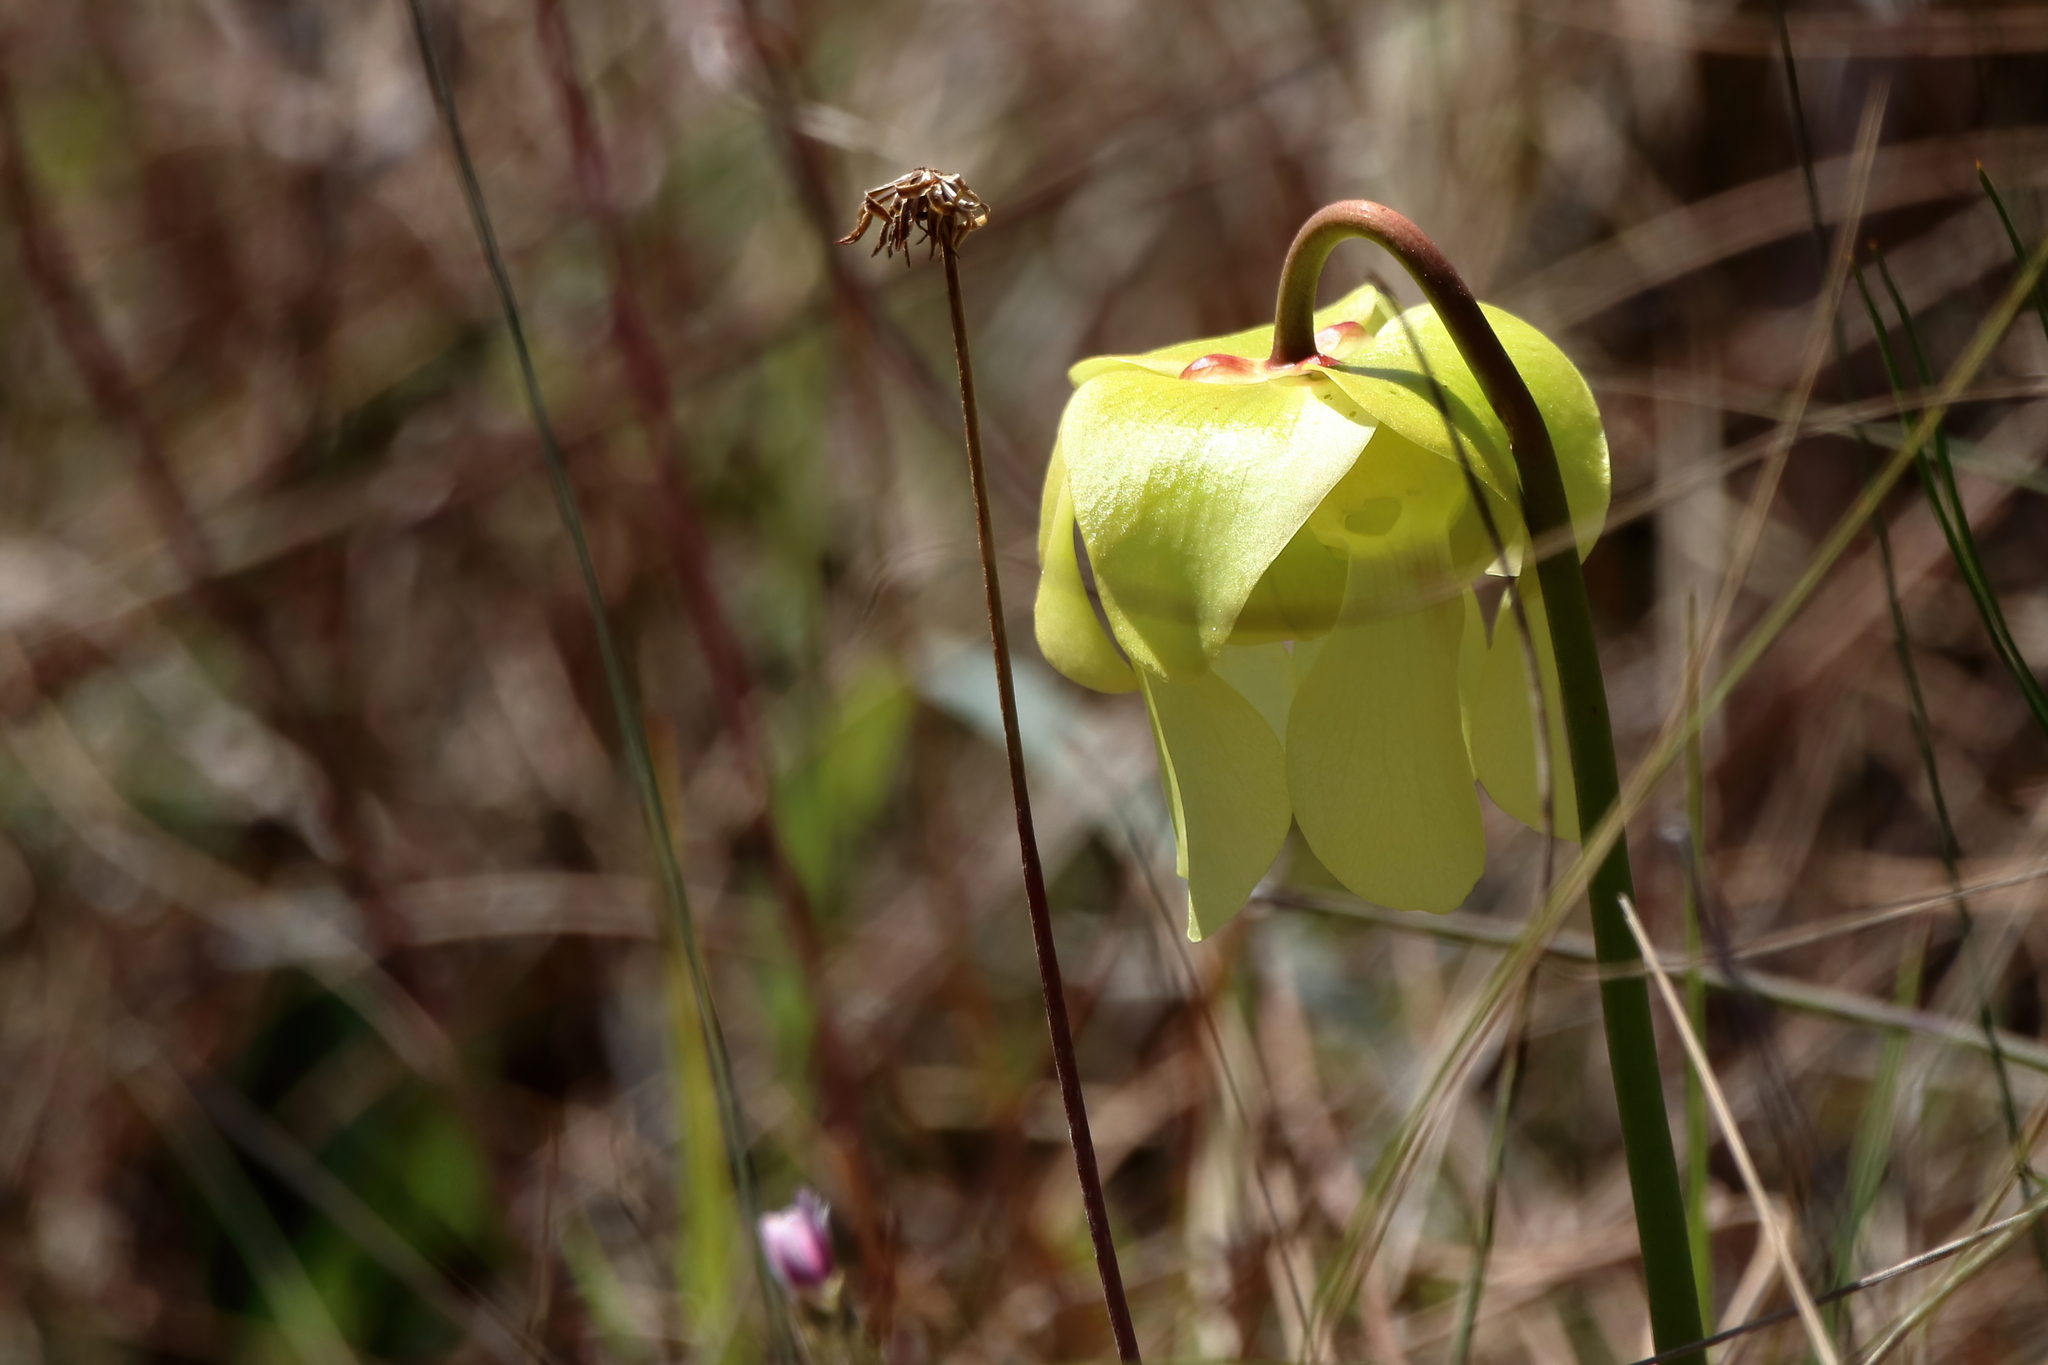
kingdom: Plantae
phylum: Tracheophyta
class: Magnoliopsida
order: Ericales
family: Sarraceniaceae
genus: Sarracenia
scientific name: Sarracenia alata
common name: Yellow trumpets
